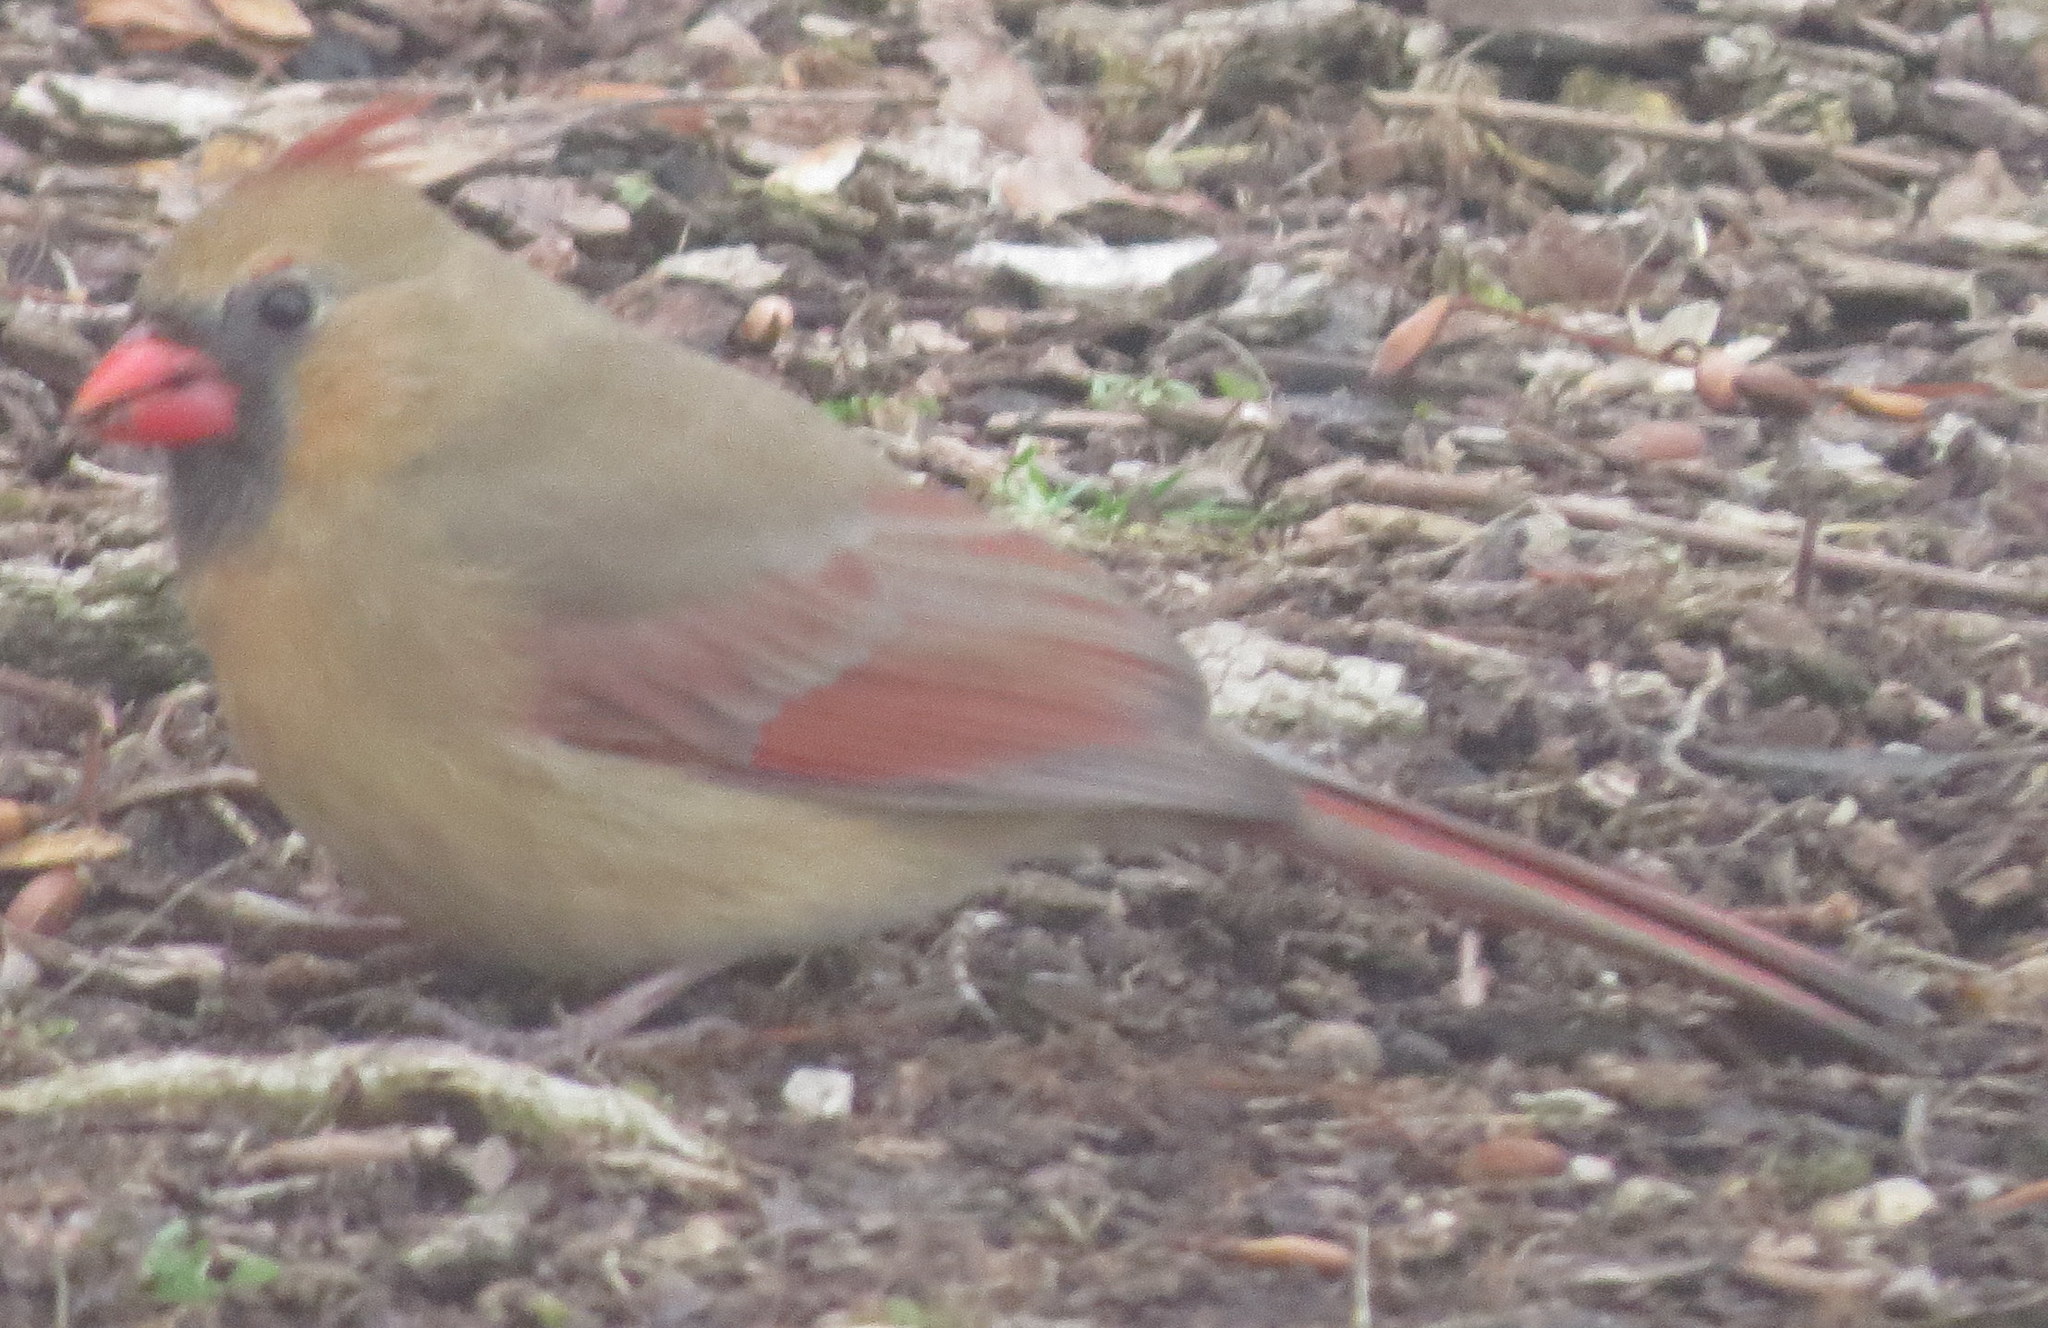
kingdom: Animalia
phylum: Chordata
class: Aves
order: Passeriformes
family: Cardinalidae
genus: Cardinalis
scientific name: Cardinalis cardinalis
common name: Northern cardinal
